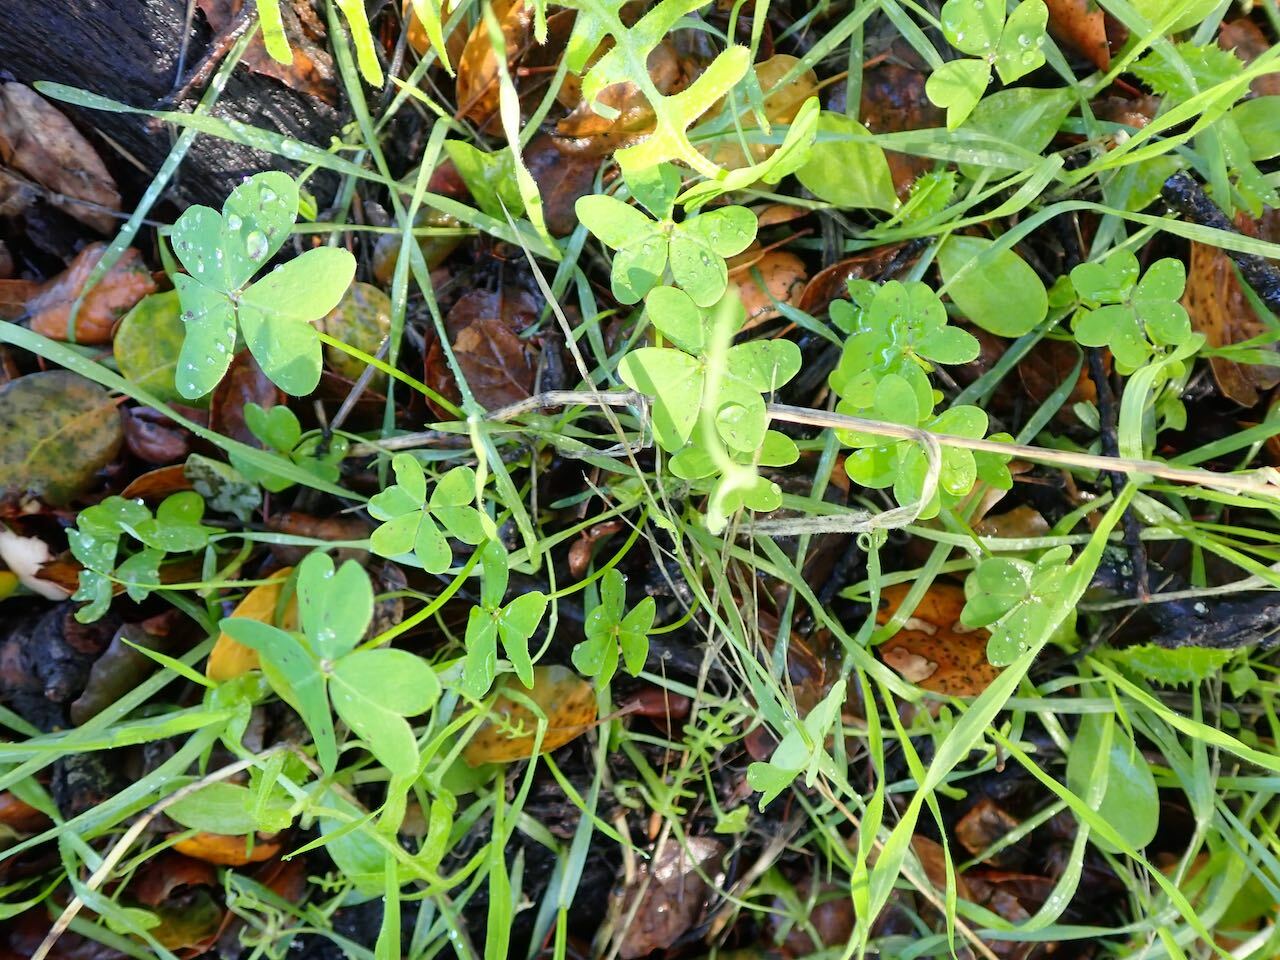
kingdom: Plantae
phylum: Tracheophyta
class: Magnoliopsida
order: Oxalidales
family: Oxalidaceae
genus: Oxalis
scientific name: Oxalis pes-caprae
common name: Bermuda-buttercup
